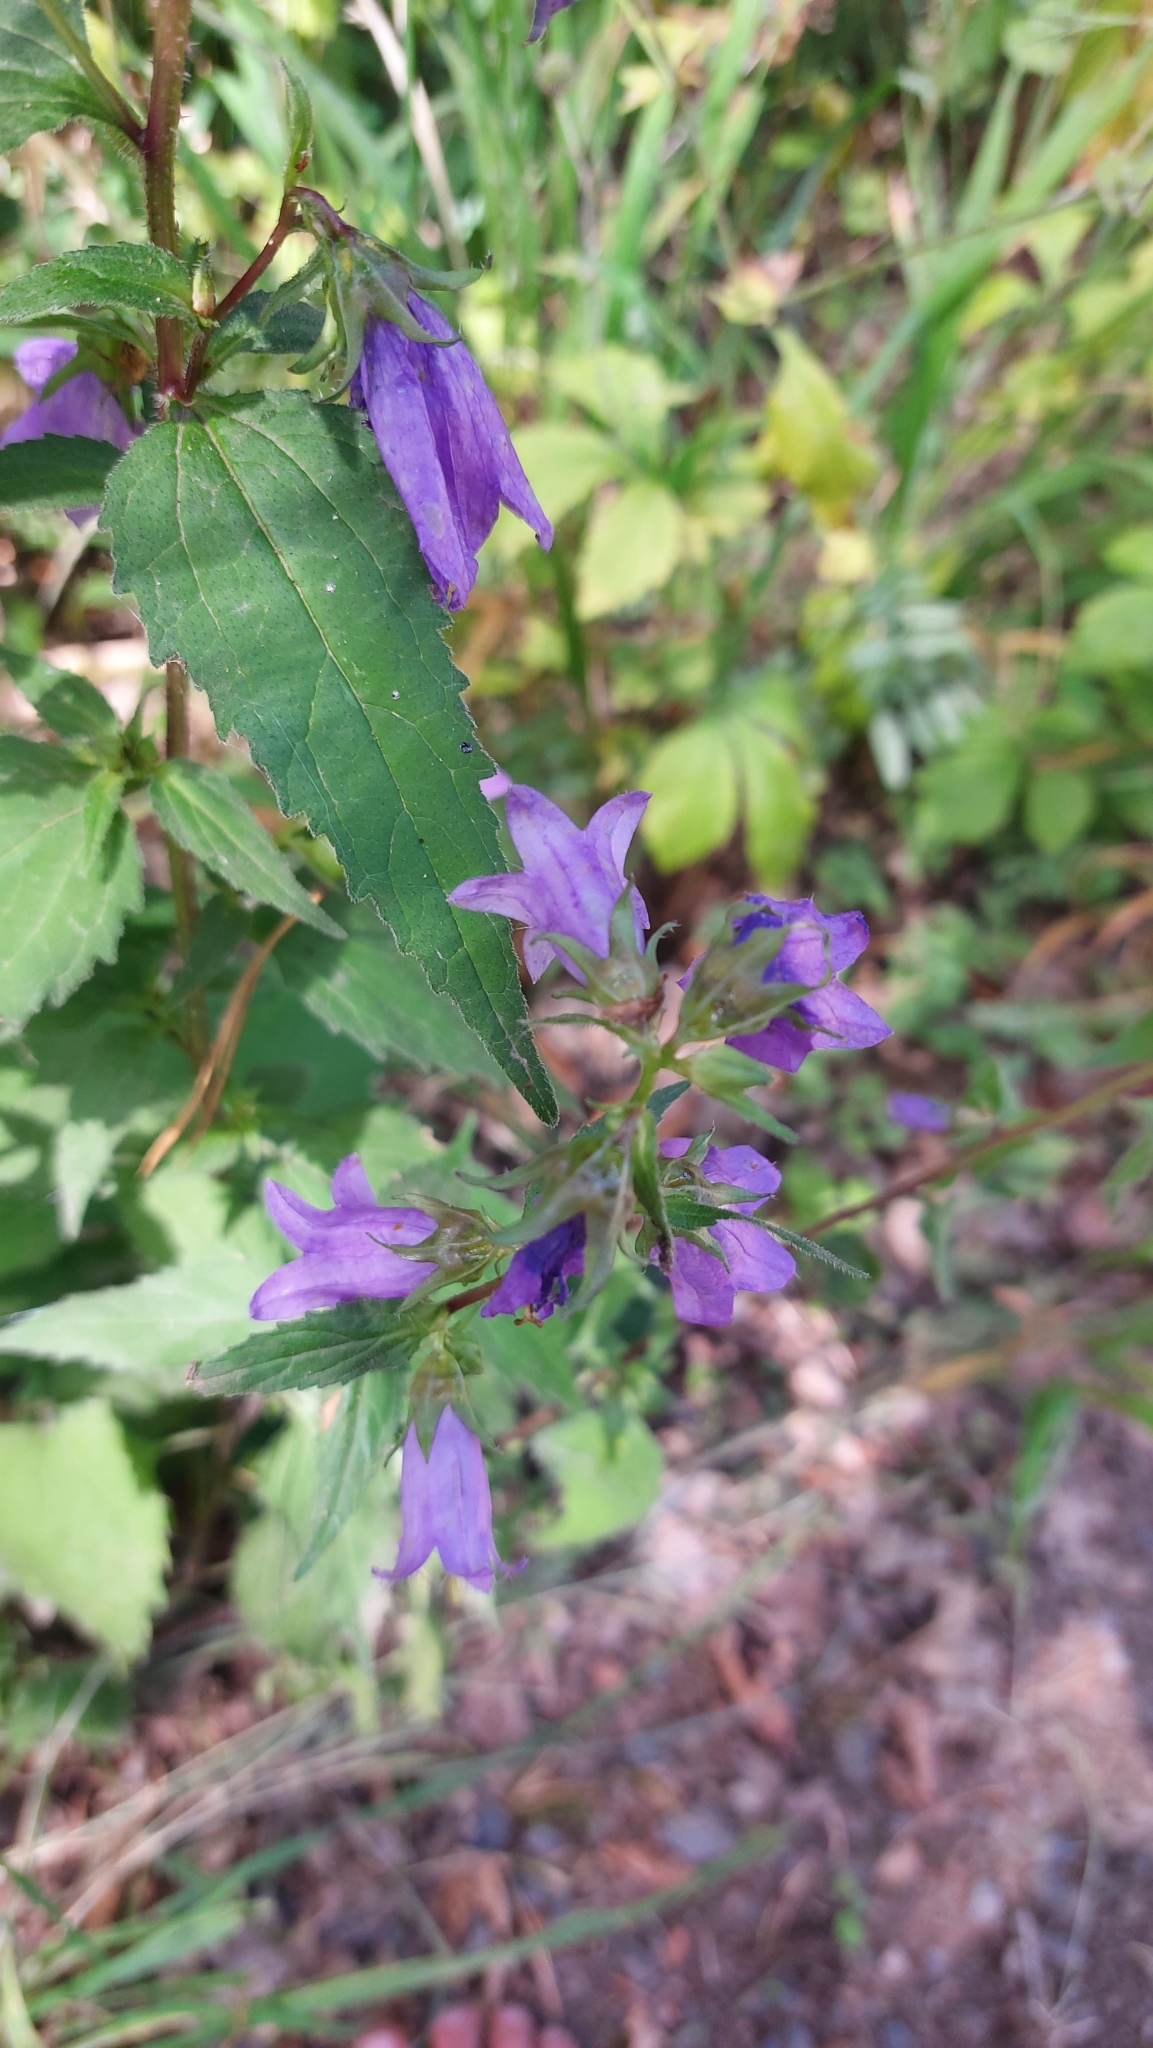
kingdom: Plantae
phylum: Tracheophyta
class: Magnoliopsida
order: Asterales
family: Campanulaceae
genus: Campanula
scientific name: Campanula trachelium
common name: Nettle-leaved bellflower
